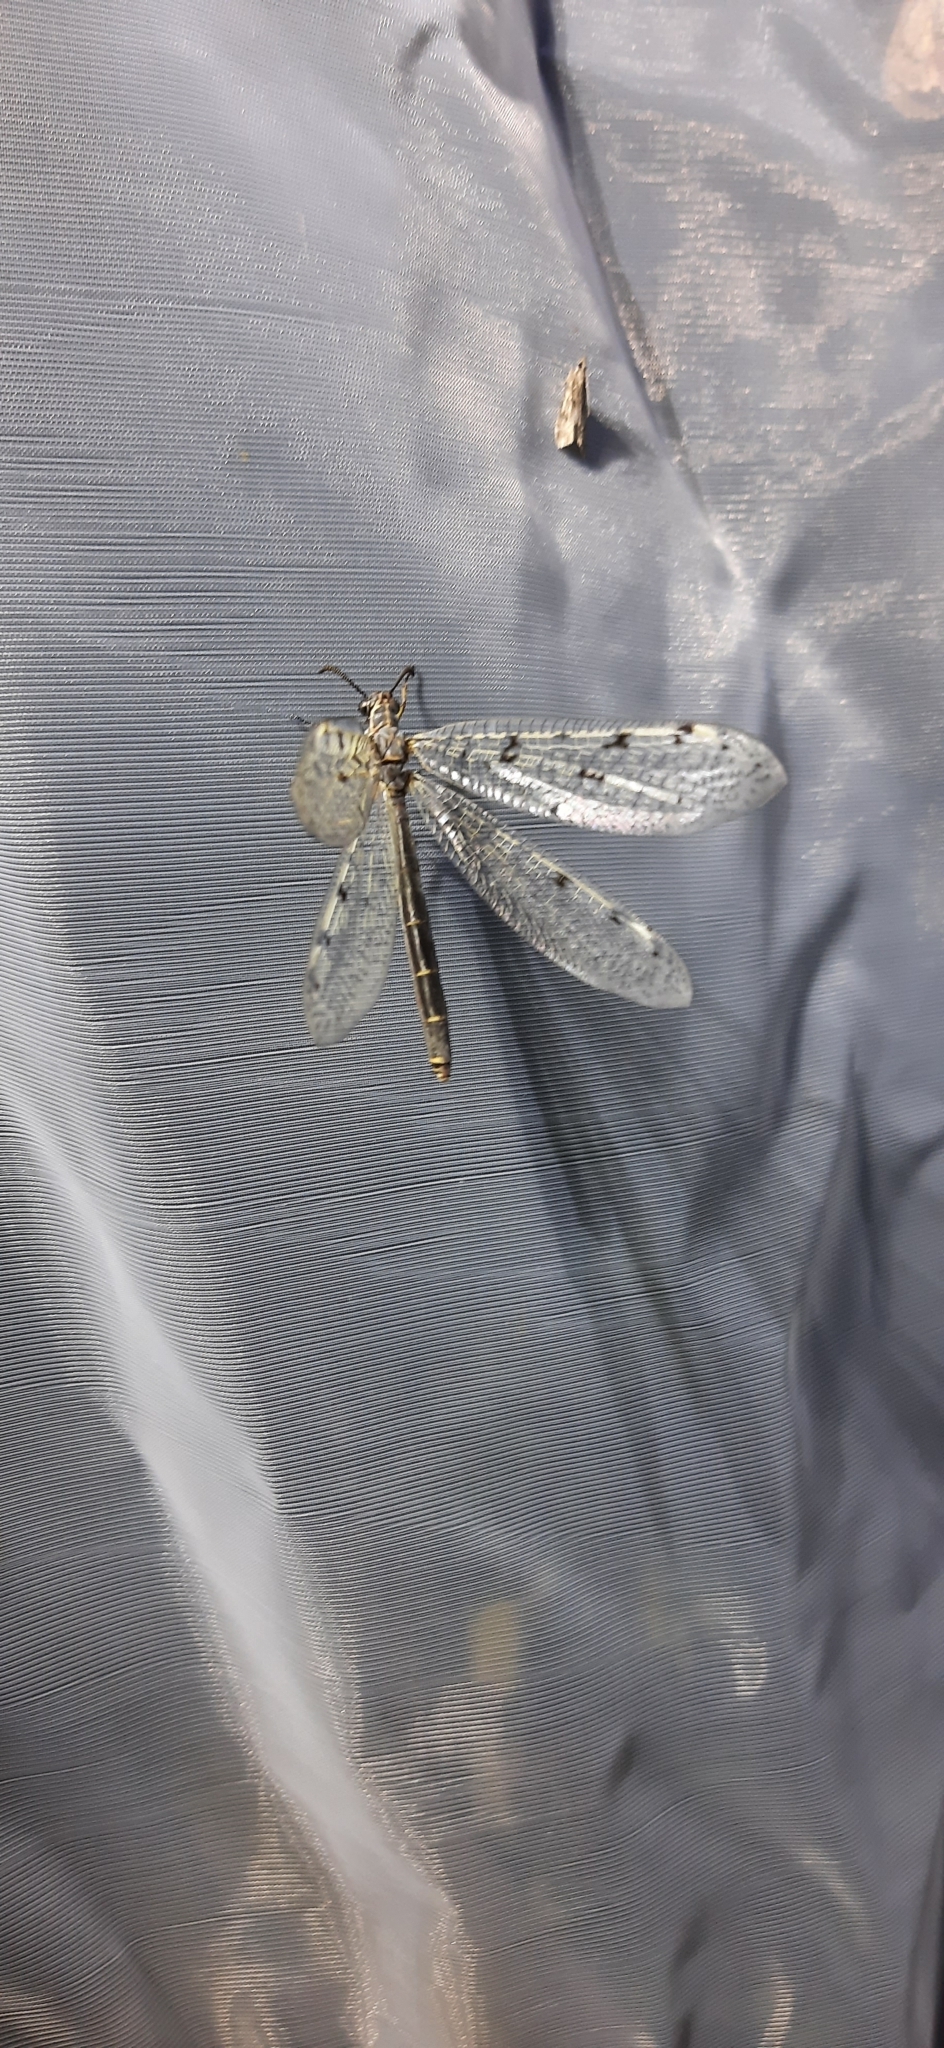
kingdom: Animalia
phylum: Arthropoda
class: Insecta
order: Neuroptera
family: Myrmeleontidae
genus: Euroleon
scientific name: Euroleon nostras
